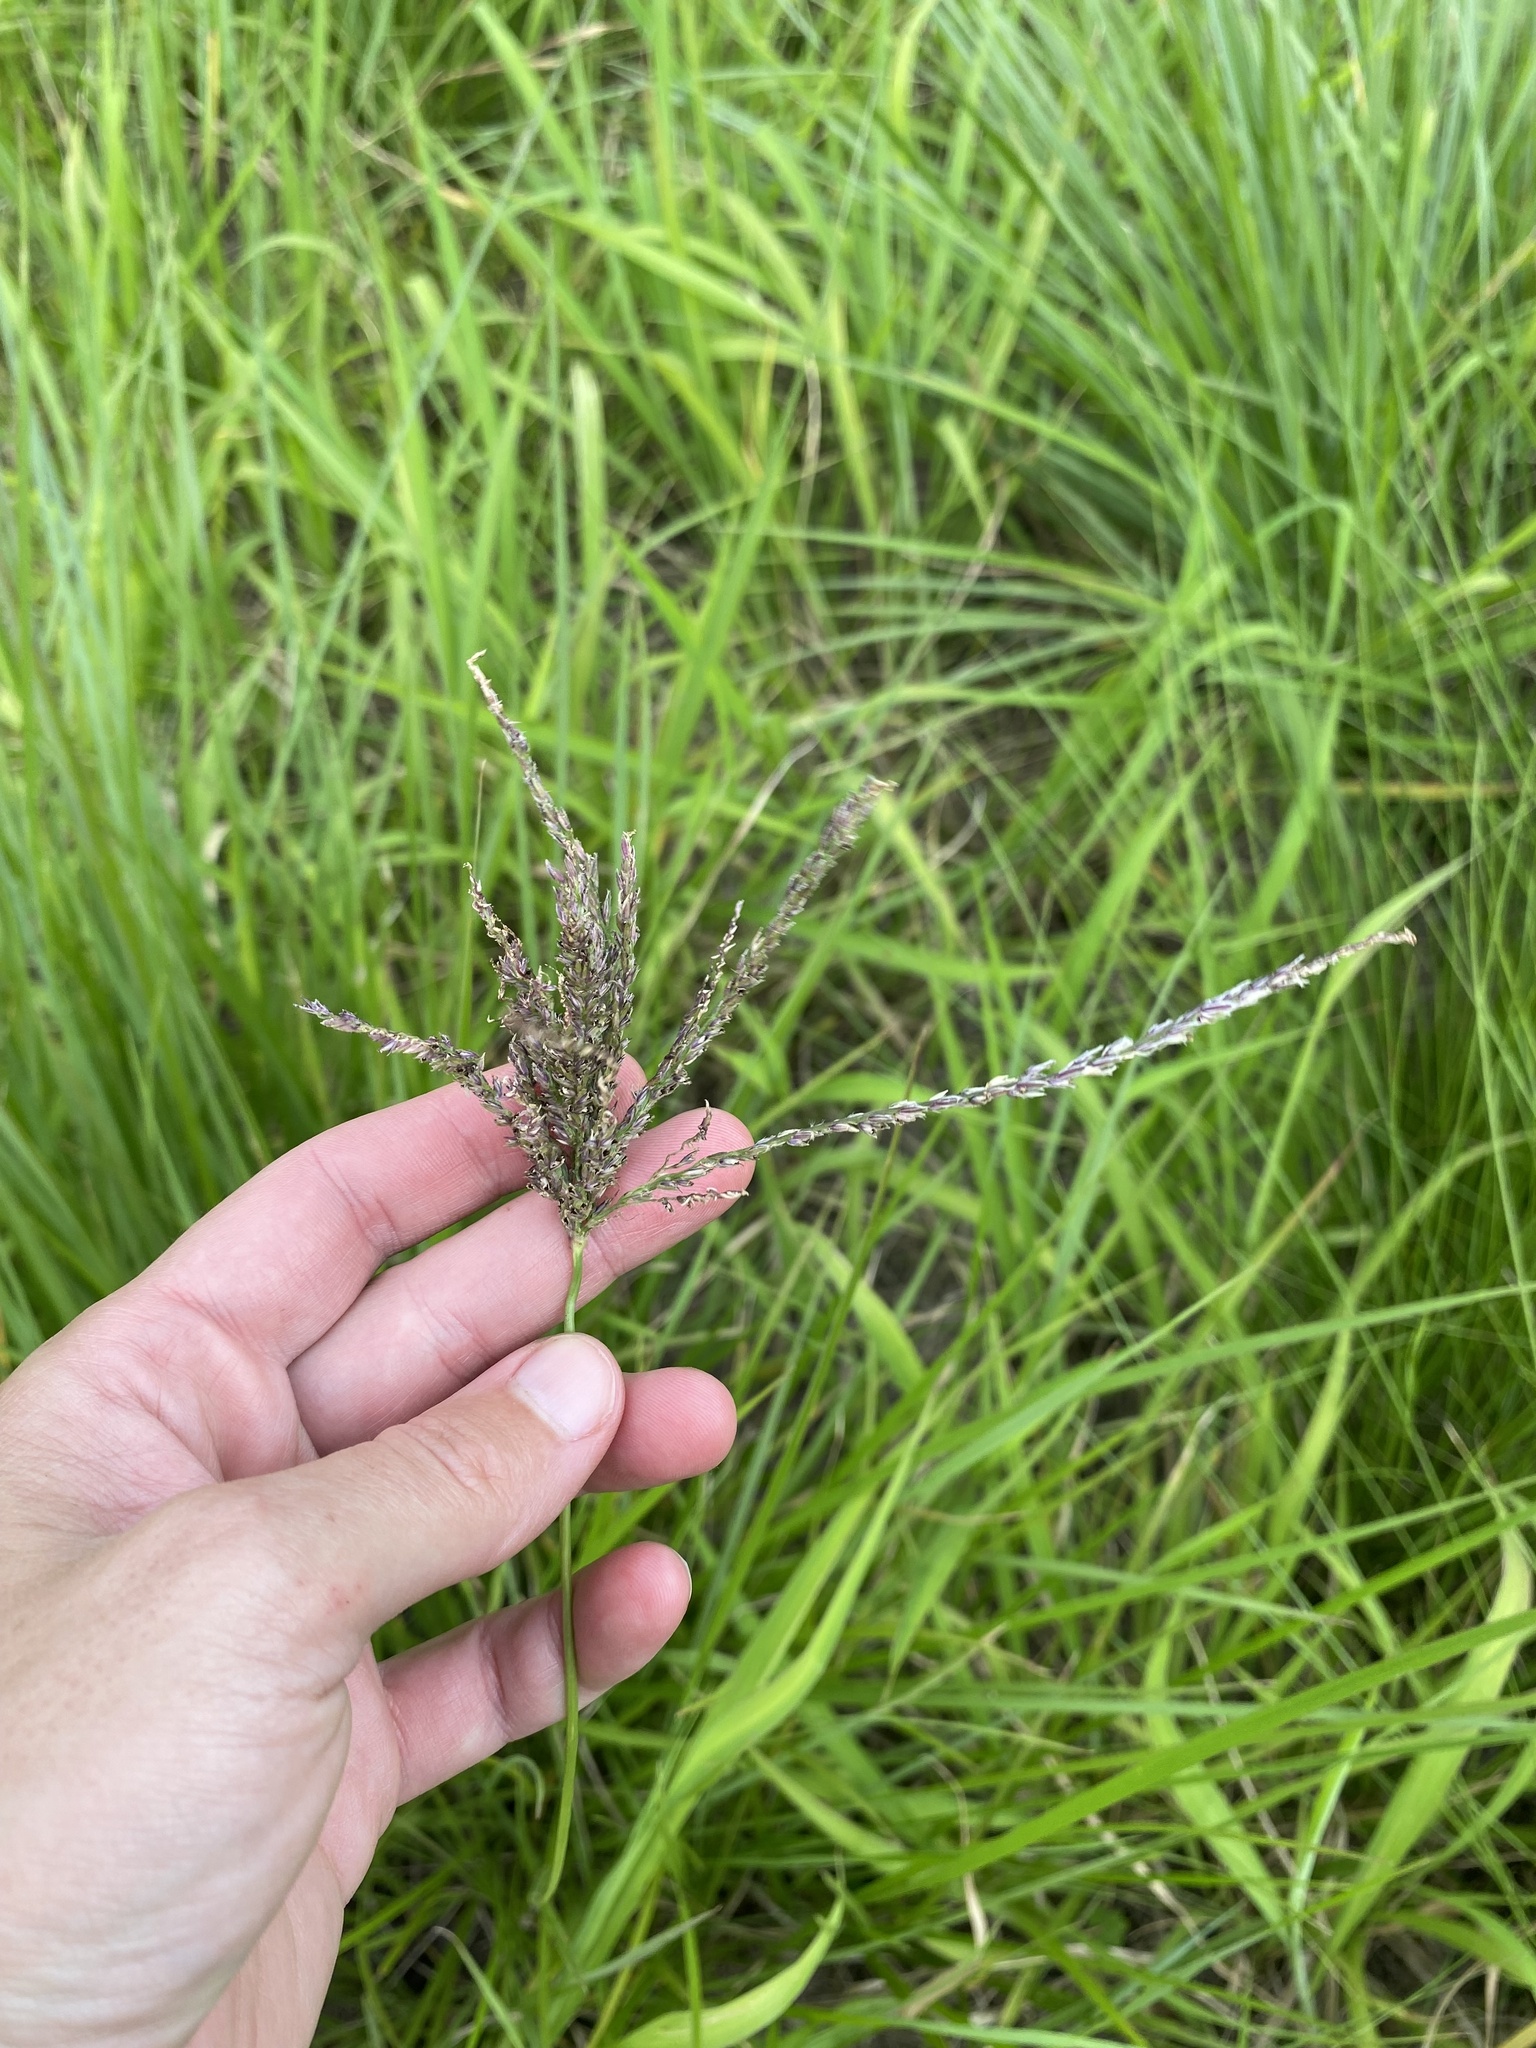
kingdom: Plantae
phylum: Tracheophyta
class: Liliopsida
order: Poales
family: Poaceae
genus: Digitaria
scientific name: Digitaria eriantha
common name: Digitgrass
